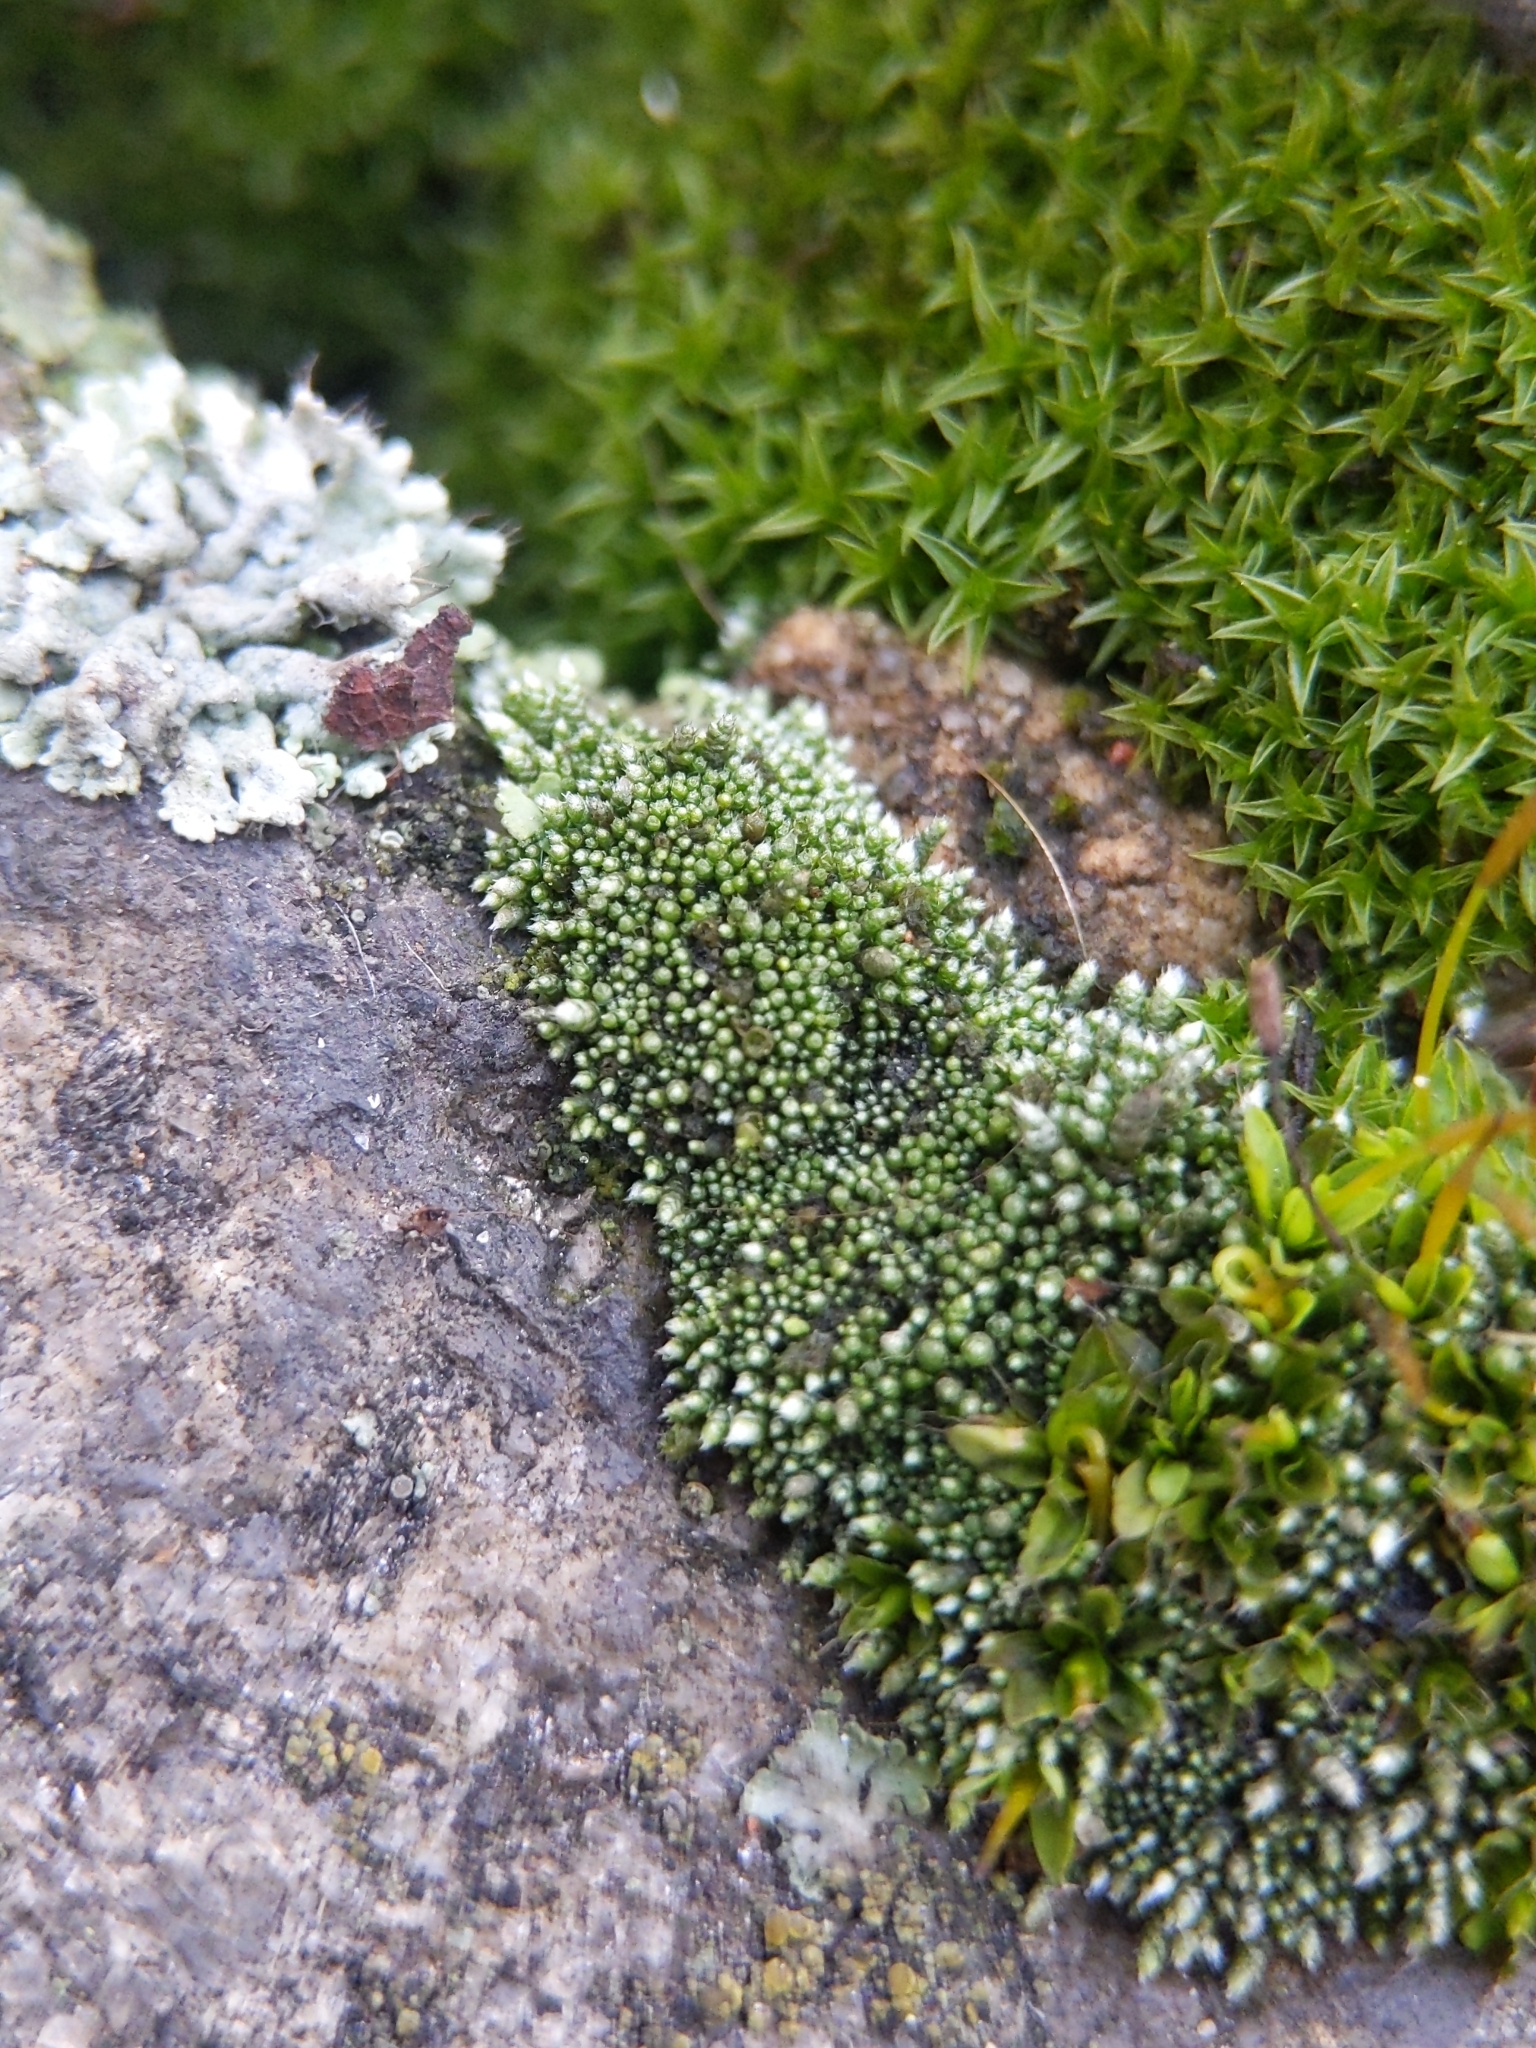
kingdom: Plantae
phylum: Bryophyta
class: Bryopsida
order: Bryales
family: Bryaceae
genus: Bryum
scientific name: Bryum argenteum
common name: Silver-moss
